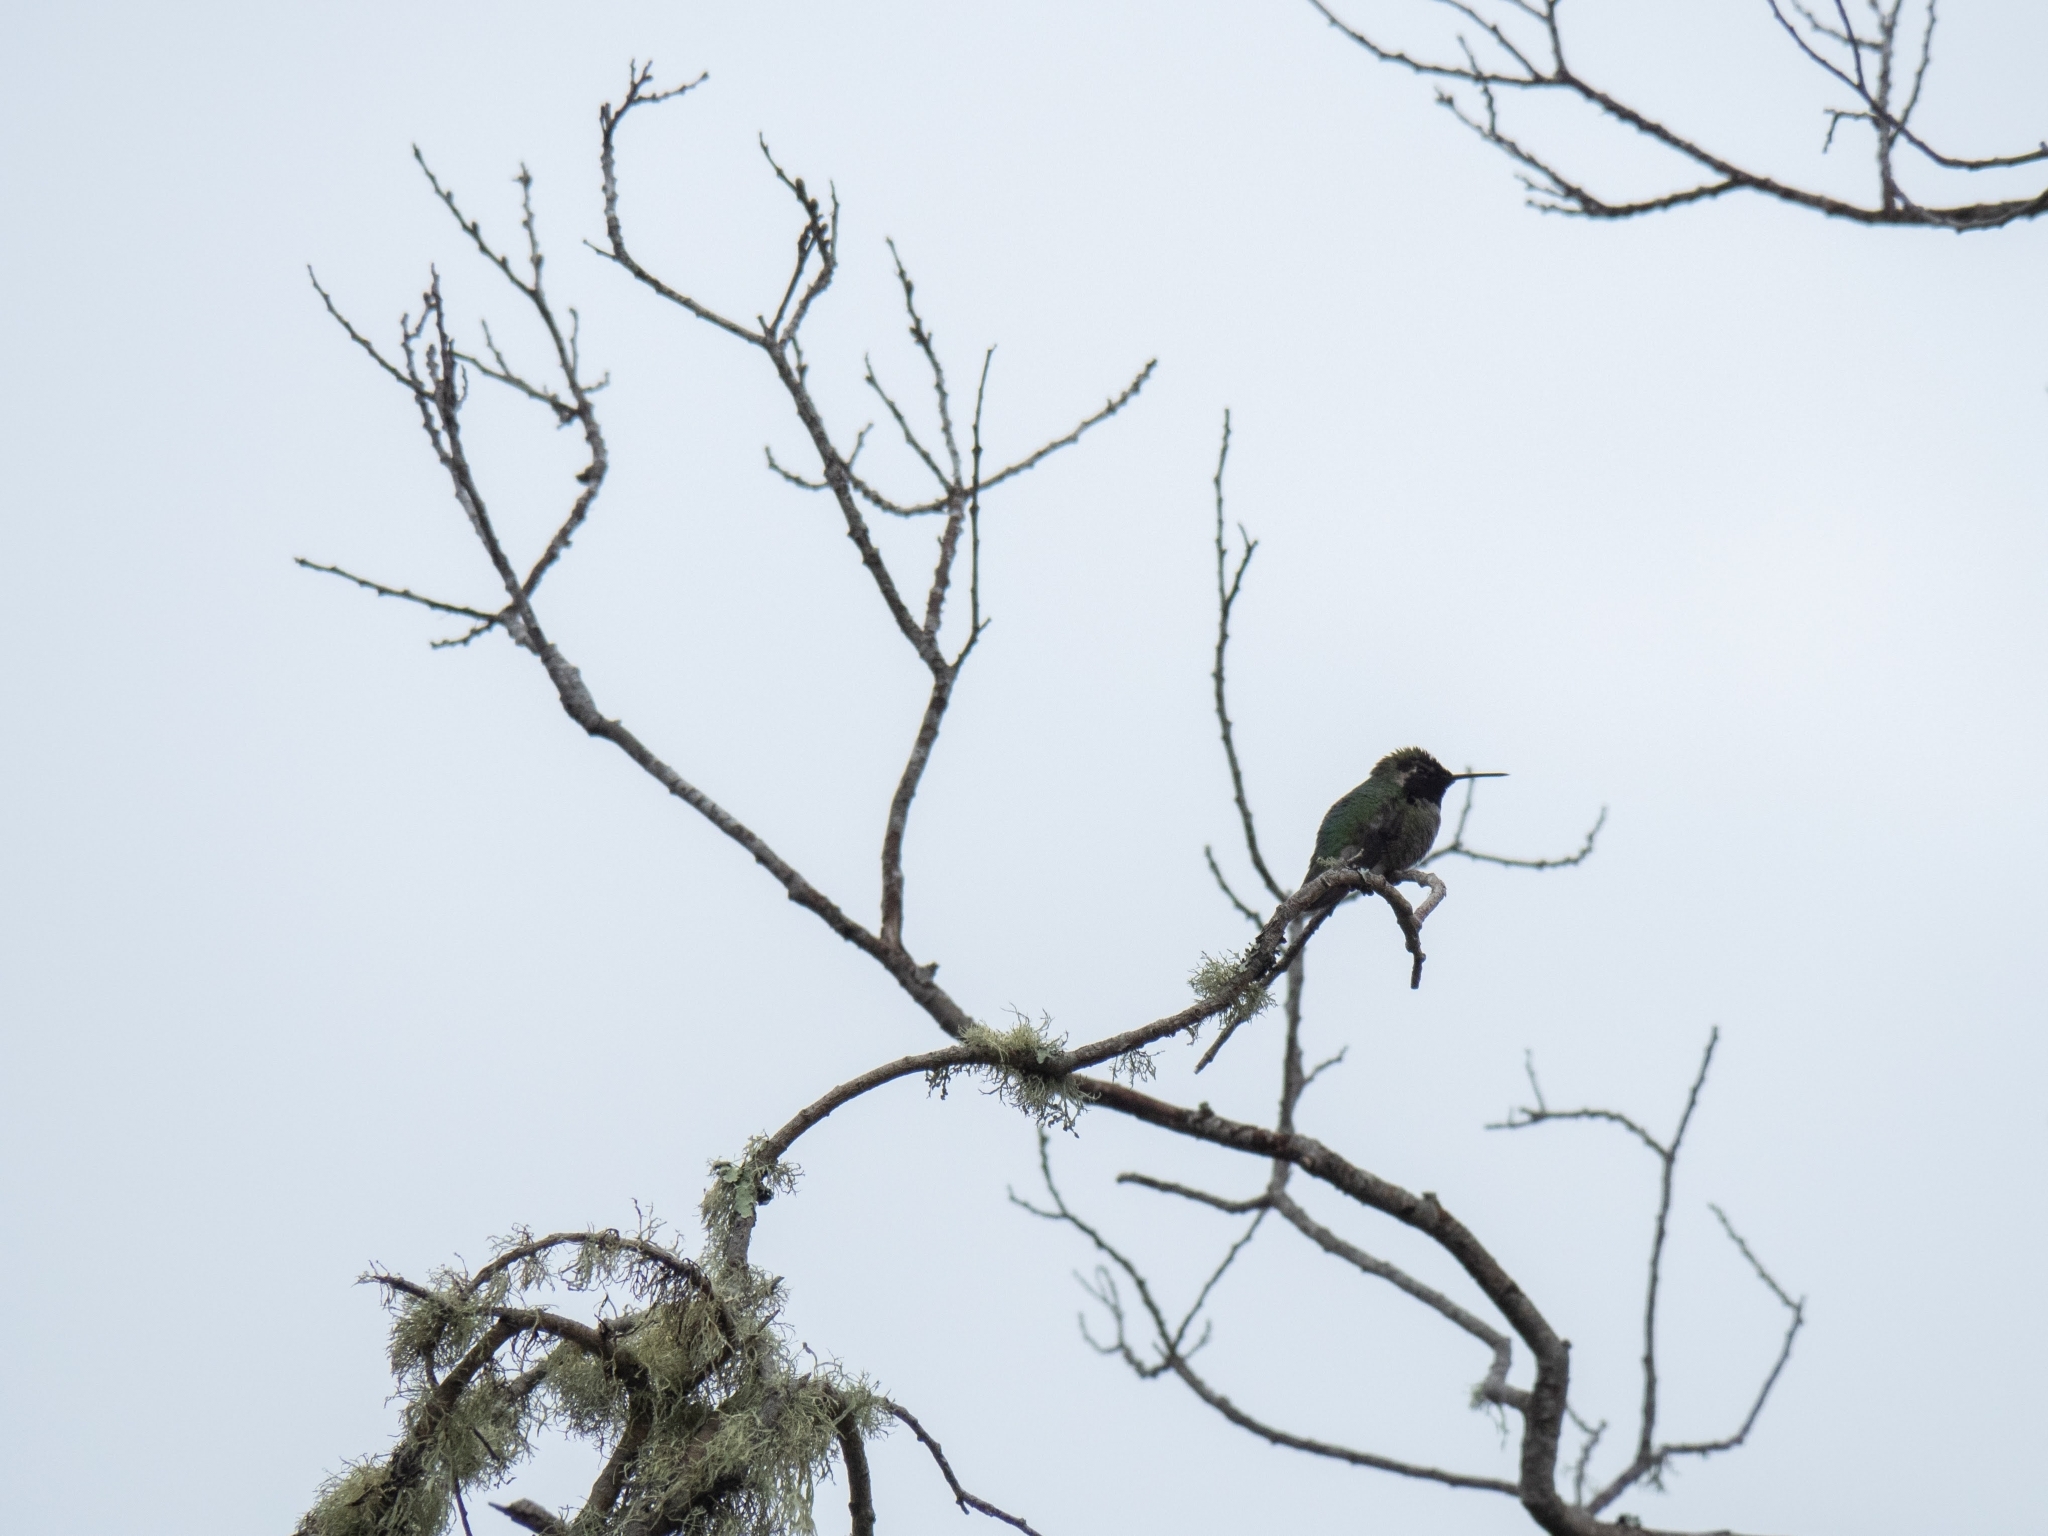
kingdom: Animalia
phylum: Chordata
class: Aves
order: Apodiformes
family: Trochilidae
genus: Calypte
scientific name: Calypte anna
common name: Anna's hummingbird
